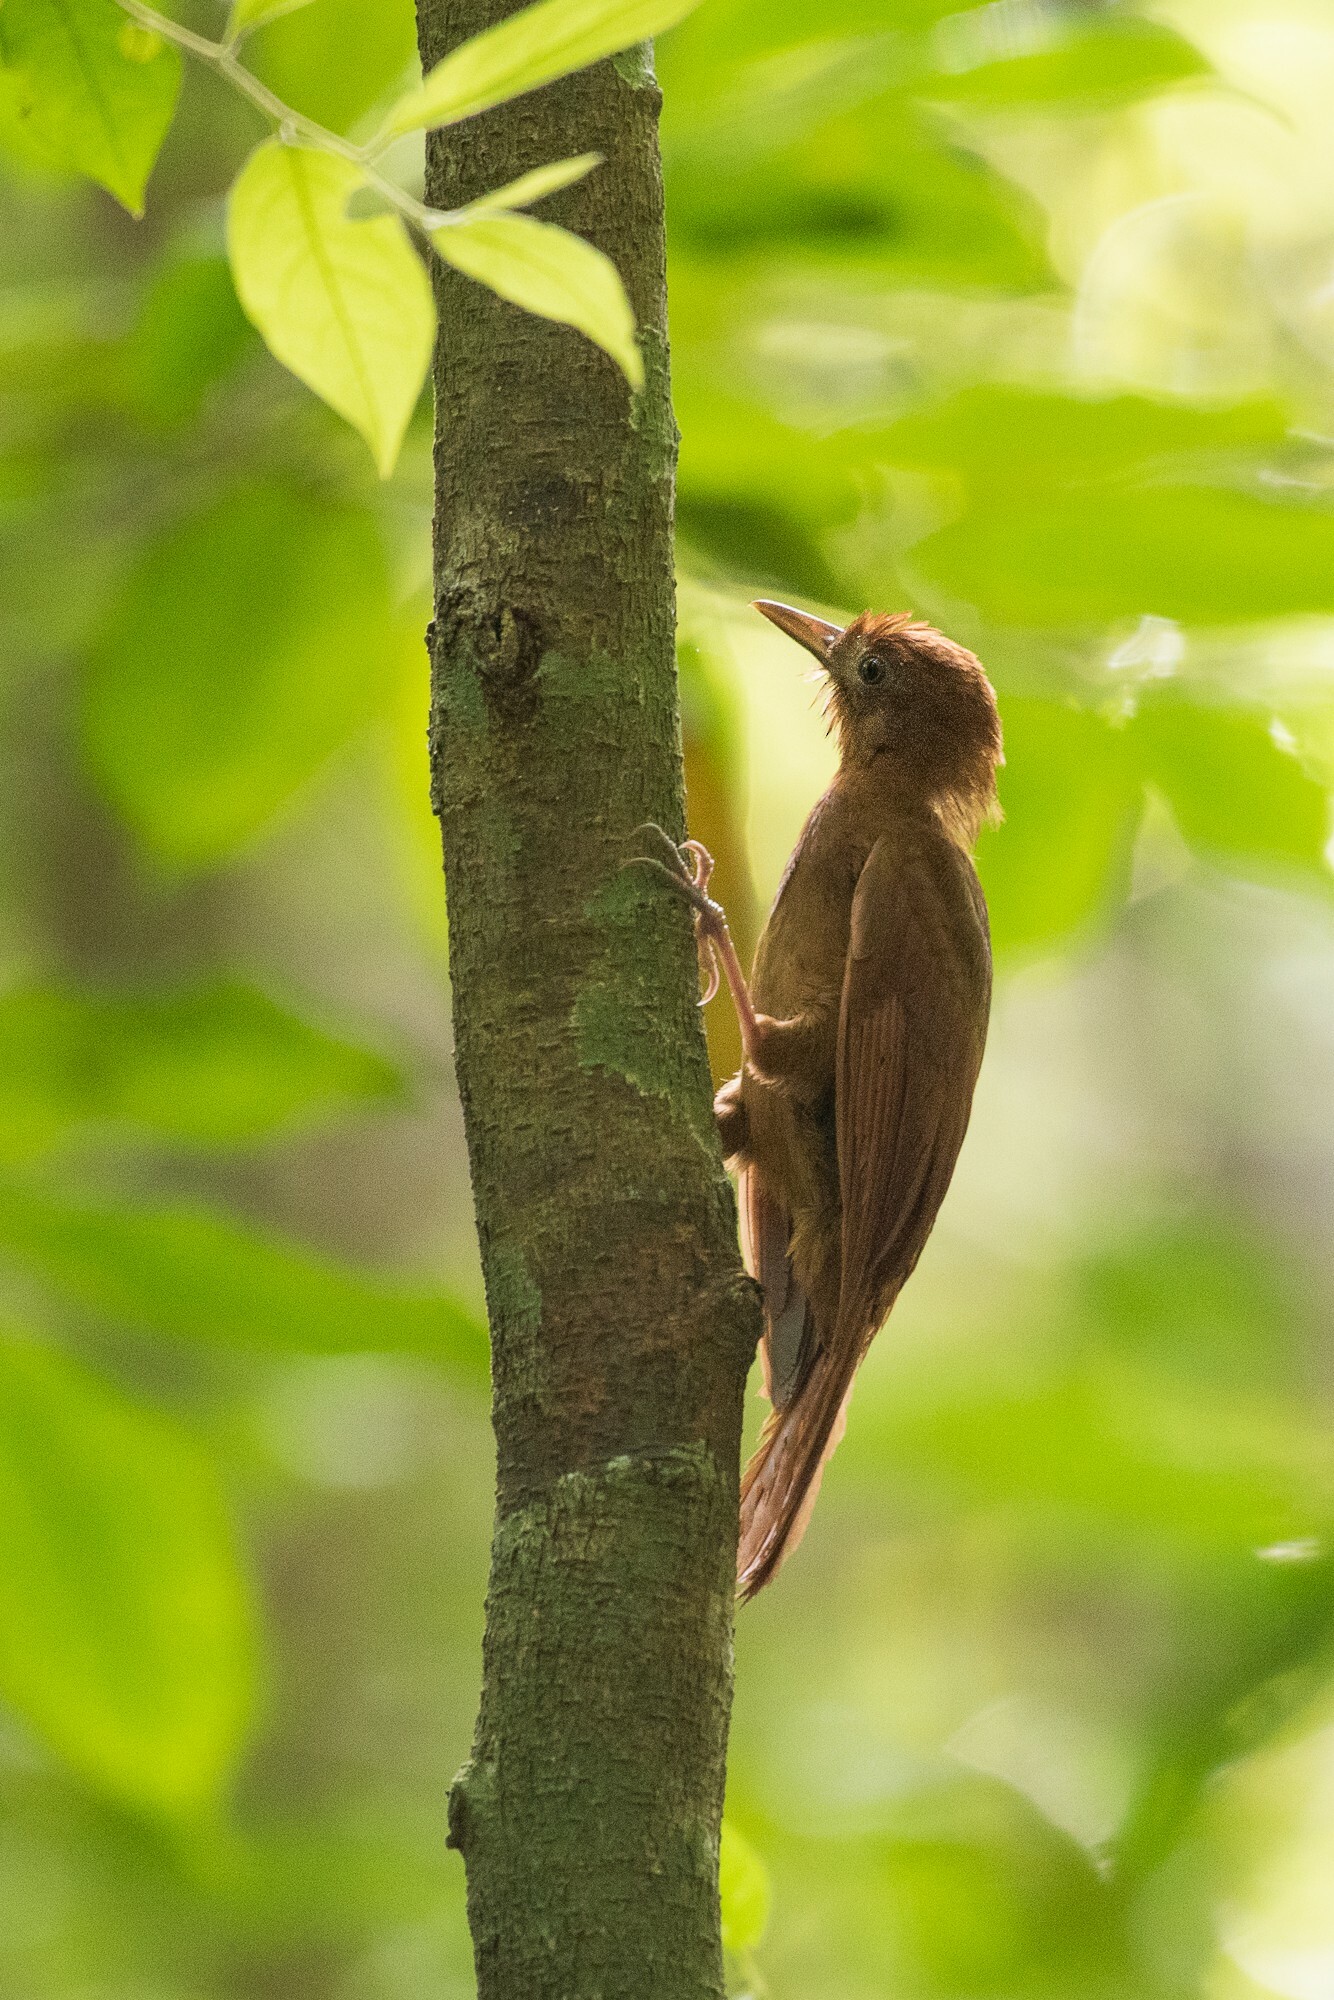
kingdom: Animalia
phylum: Chordata
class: Aves
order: Passeriformes
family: Furnariidae
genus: Dendrocincla
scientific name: Dendrocincla homochroa
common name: Ruddy woodcreeper
